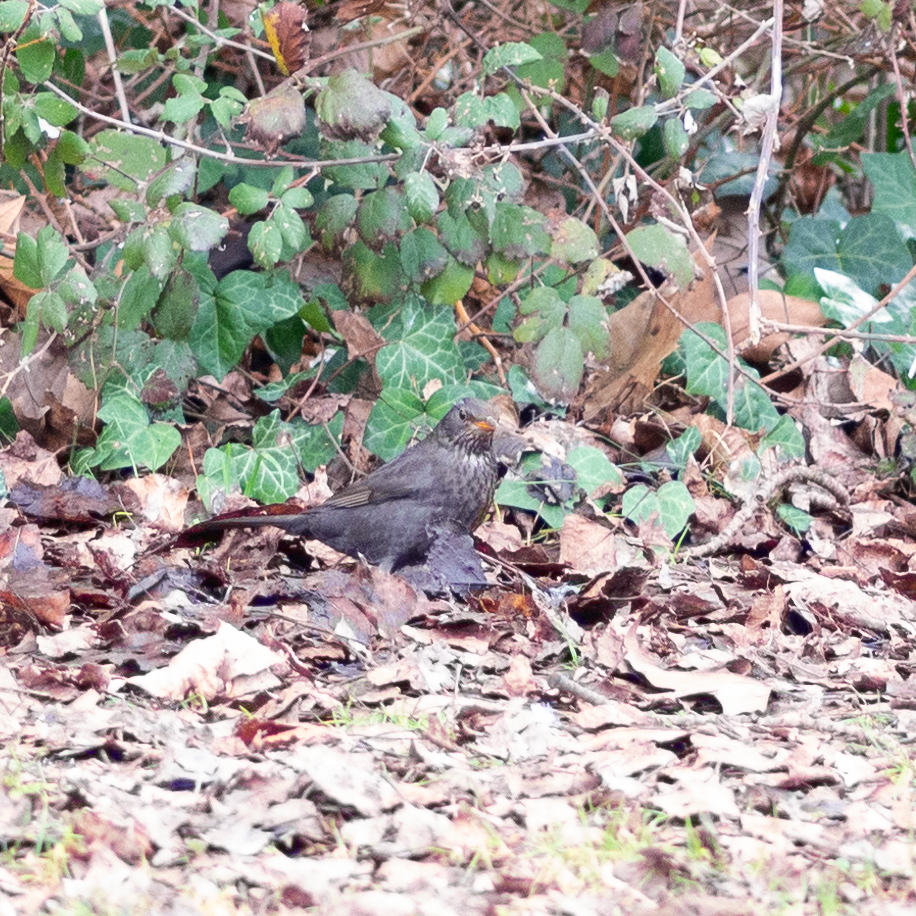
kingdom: Animalia
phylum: Chordata
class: Aves
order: Passeriformes
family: Turdidae
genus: Turdus
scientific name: Turdus merula
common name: Common blackbird
